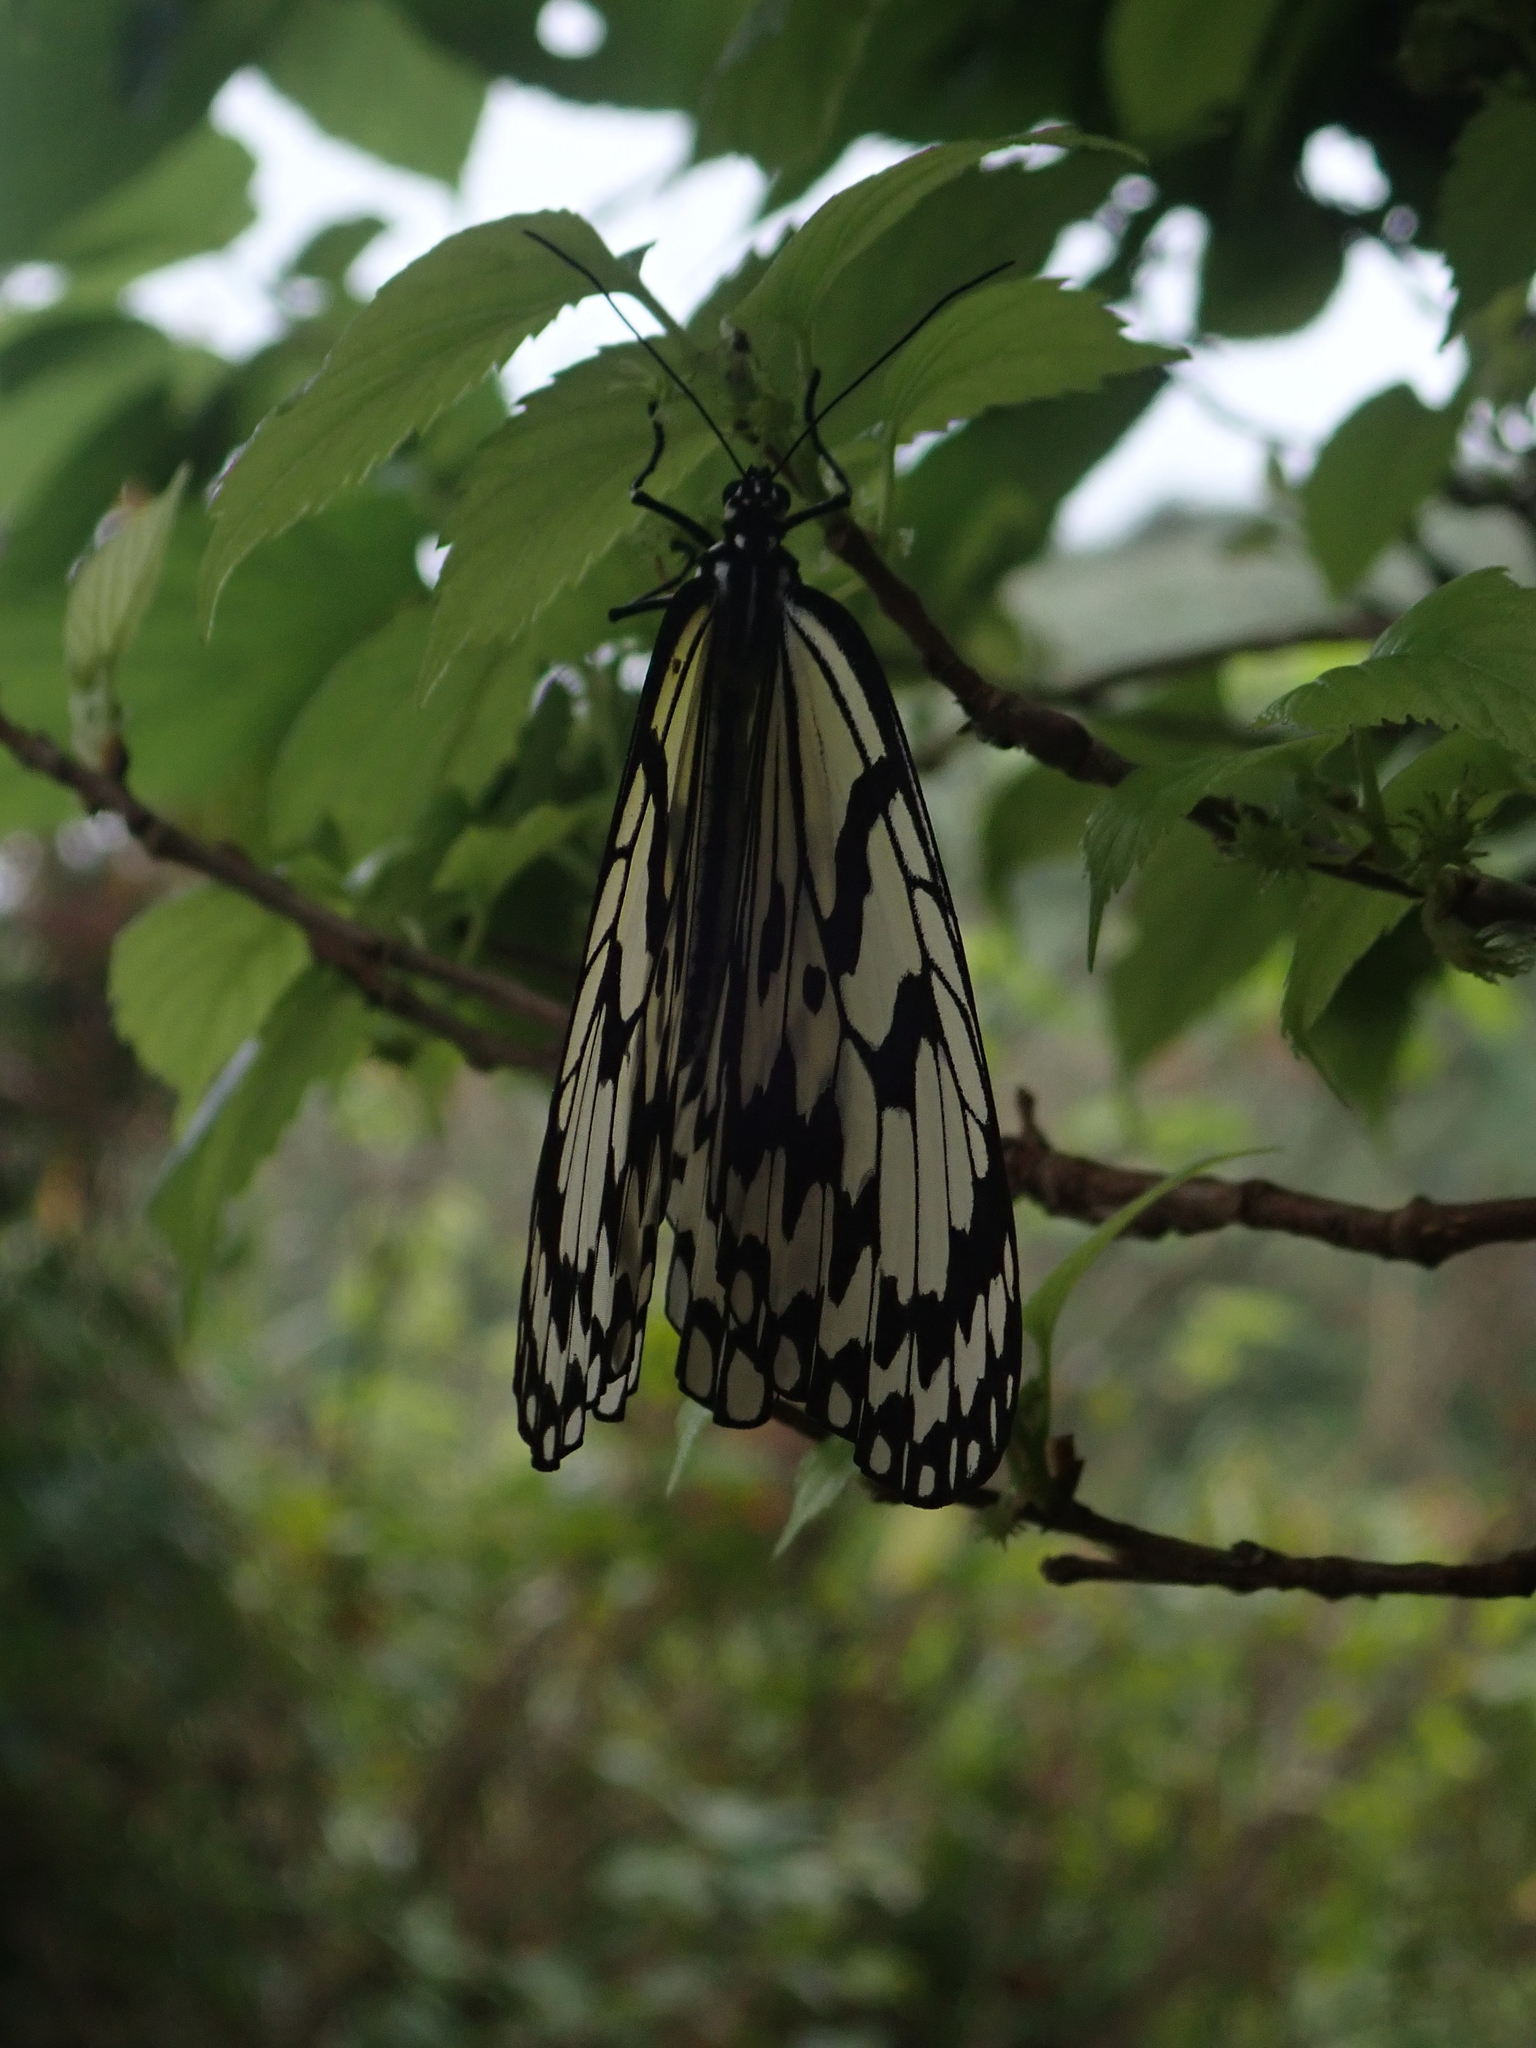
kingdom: Animalia
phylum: Arthropoda
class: Insecta
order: Lepidoptera
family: Nymphalidae
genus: Idea
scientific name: Idea leuconoe
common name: Rice paper butterfly
